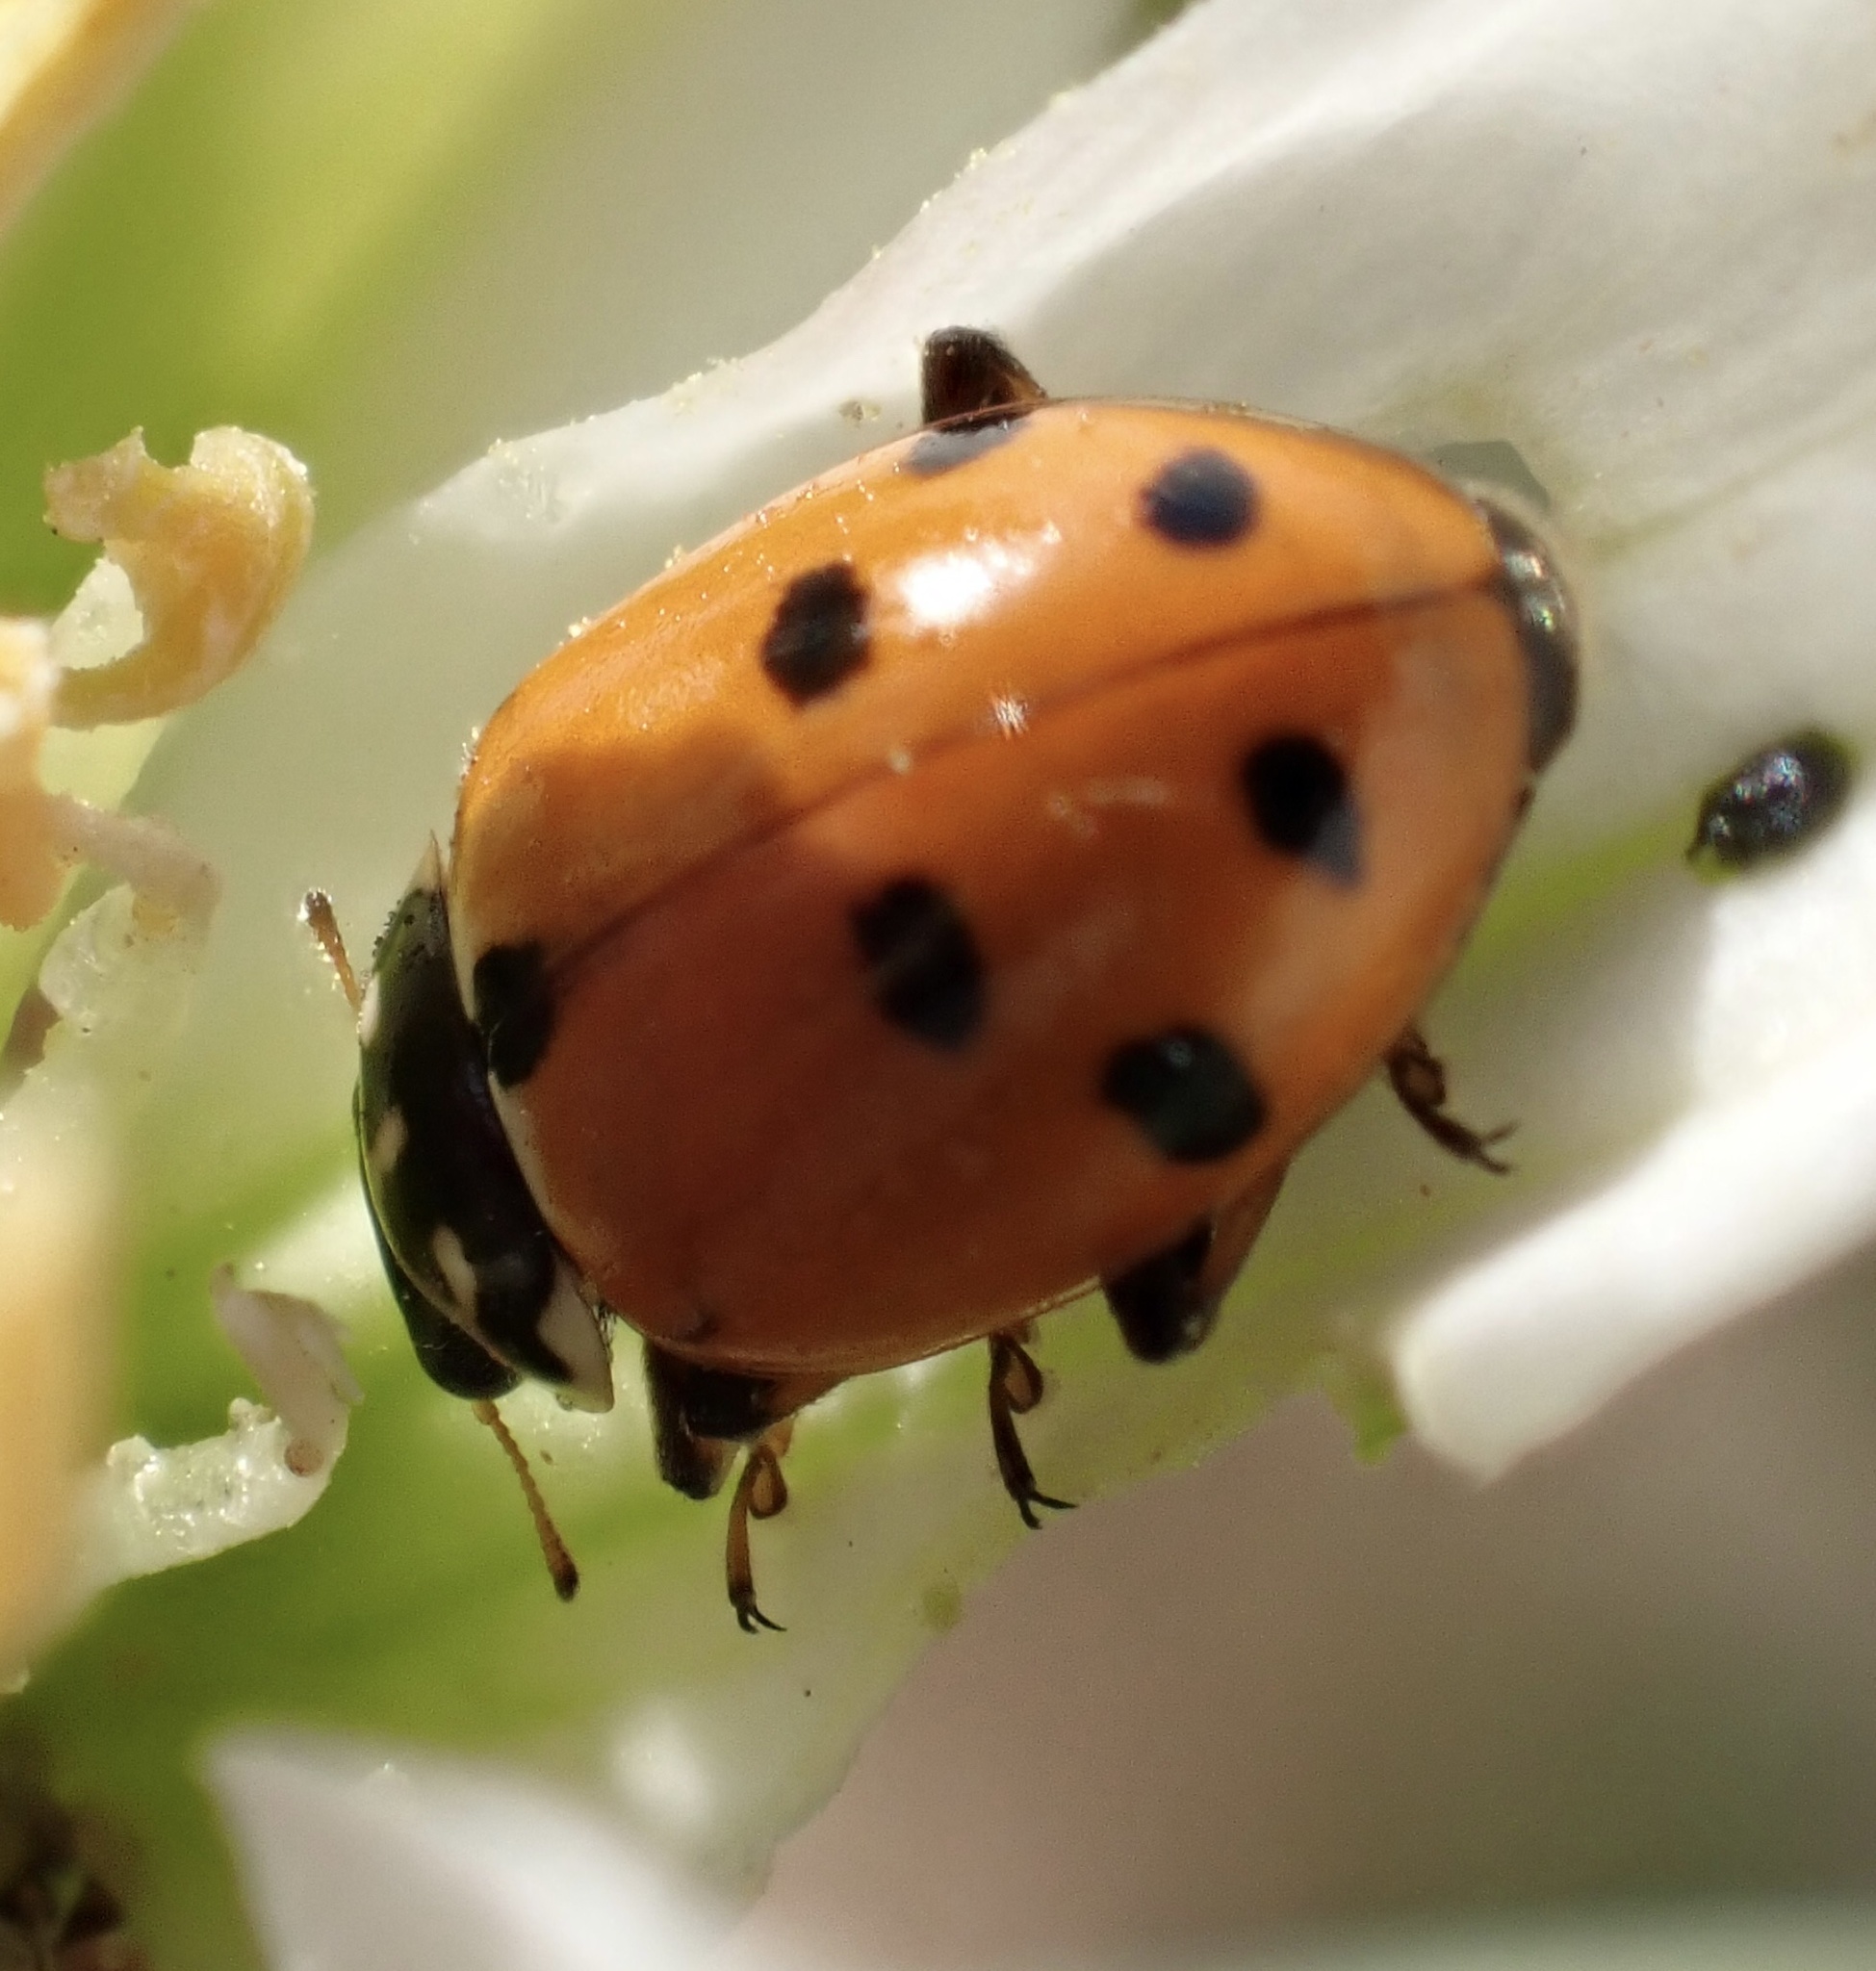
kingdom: Animalia
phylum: Arthropoda
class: Insecta
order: Coleoptera
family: Coccinellidae
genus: Hippodamia
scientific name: Hippodamia variegata
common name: Ladybird beetle
